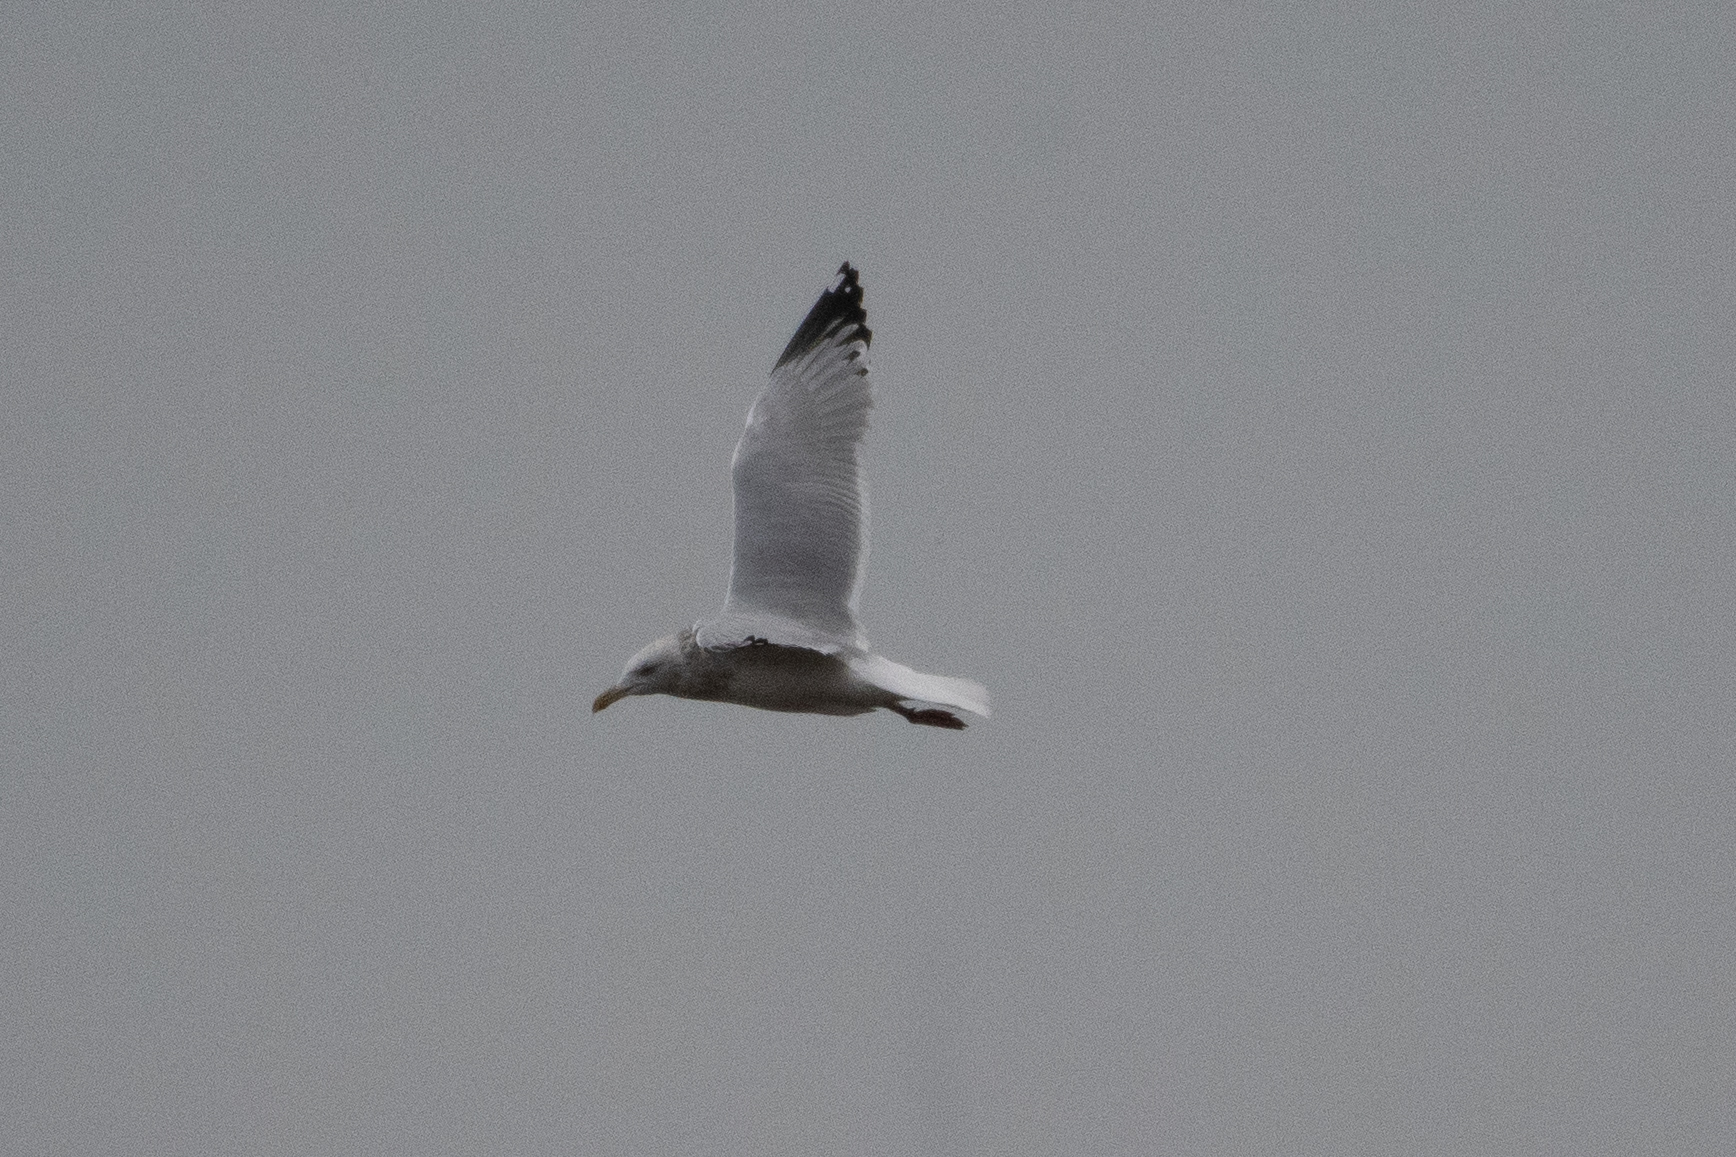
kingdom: Animalia
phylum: Chordata
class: Aves
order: Charadriiformes
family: Laridae
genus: Larus
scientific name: Larus argentatus
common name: Herring gull
